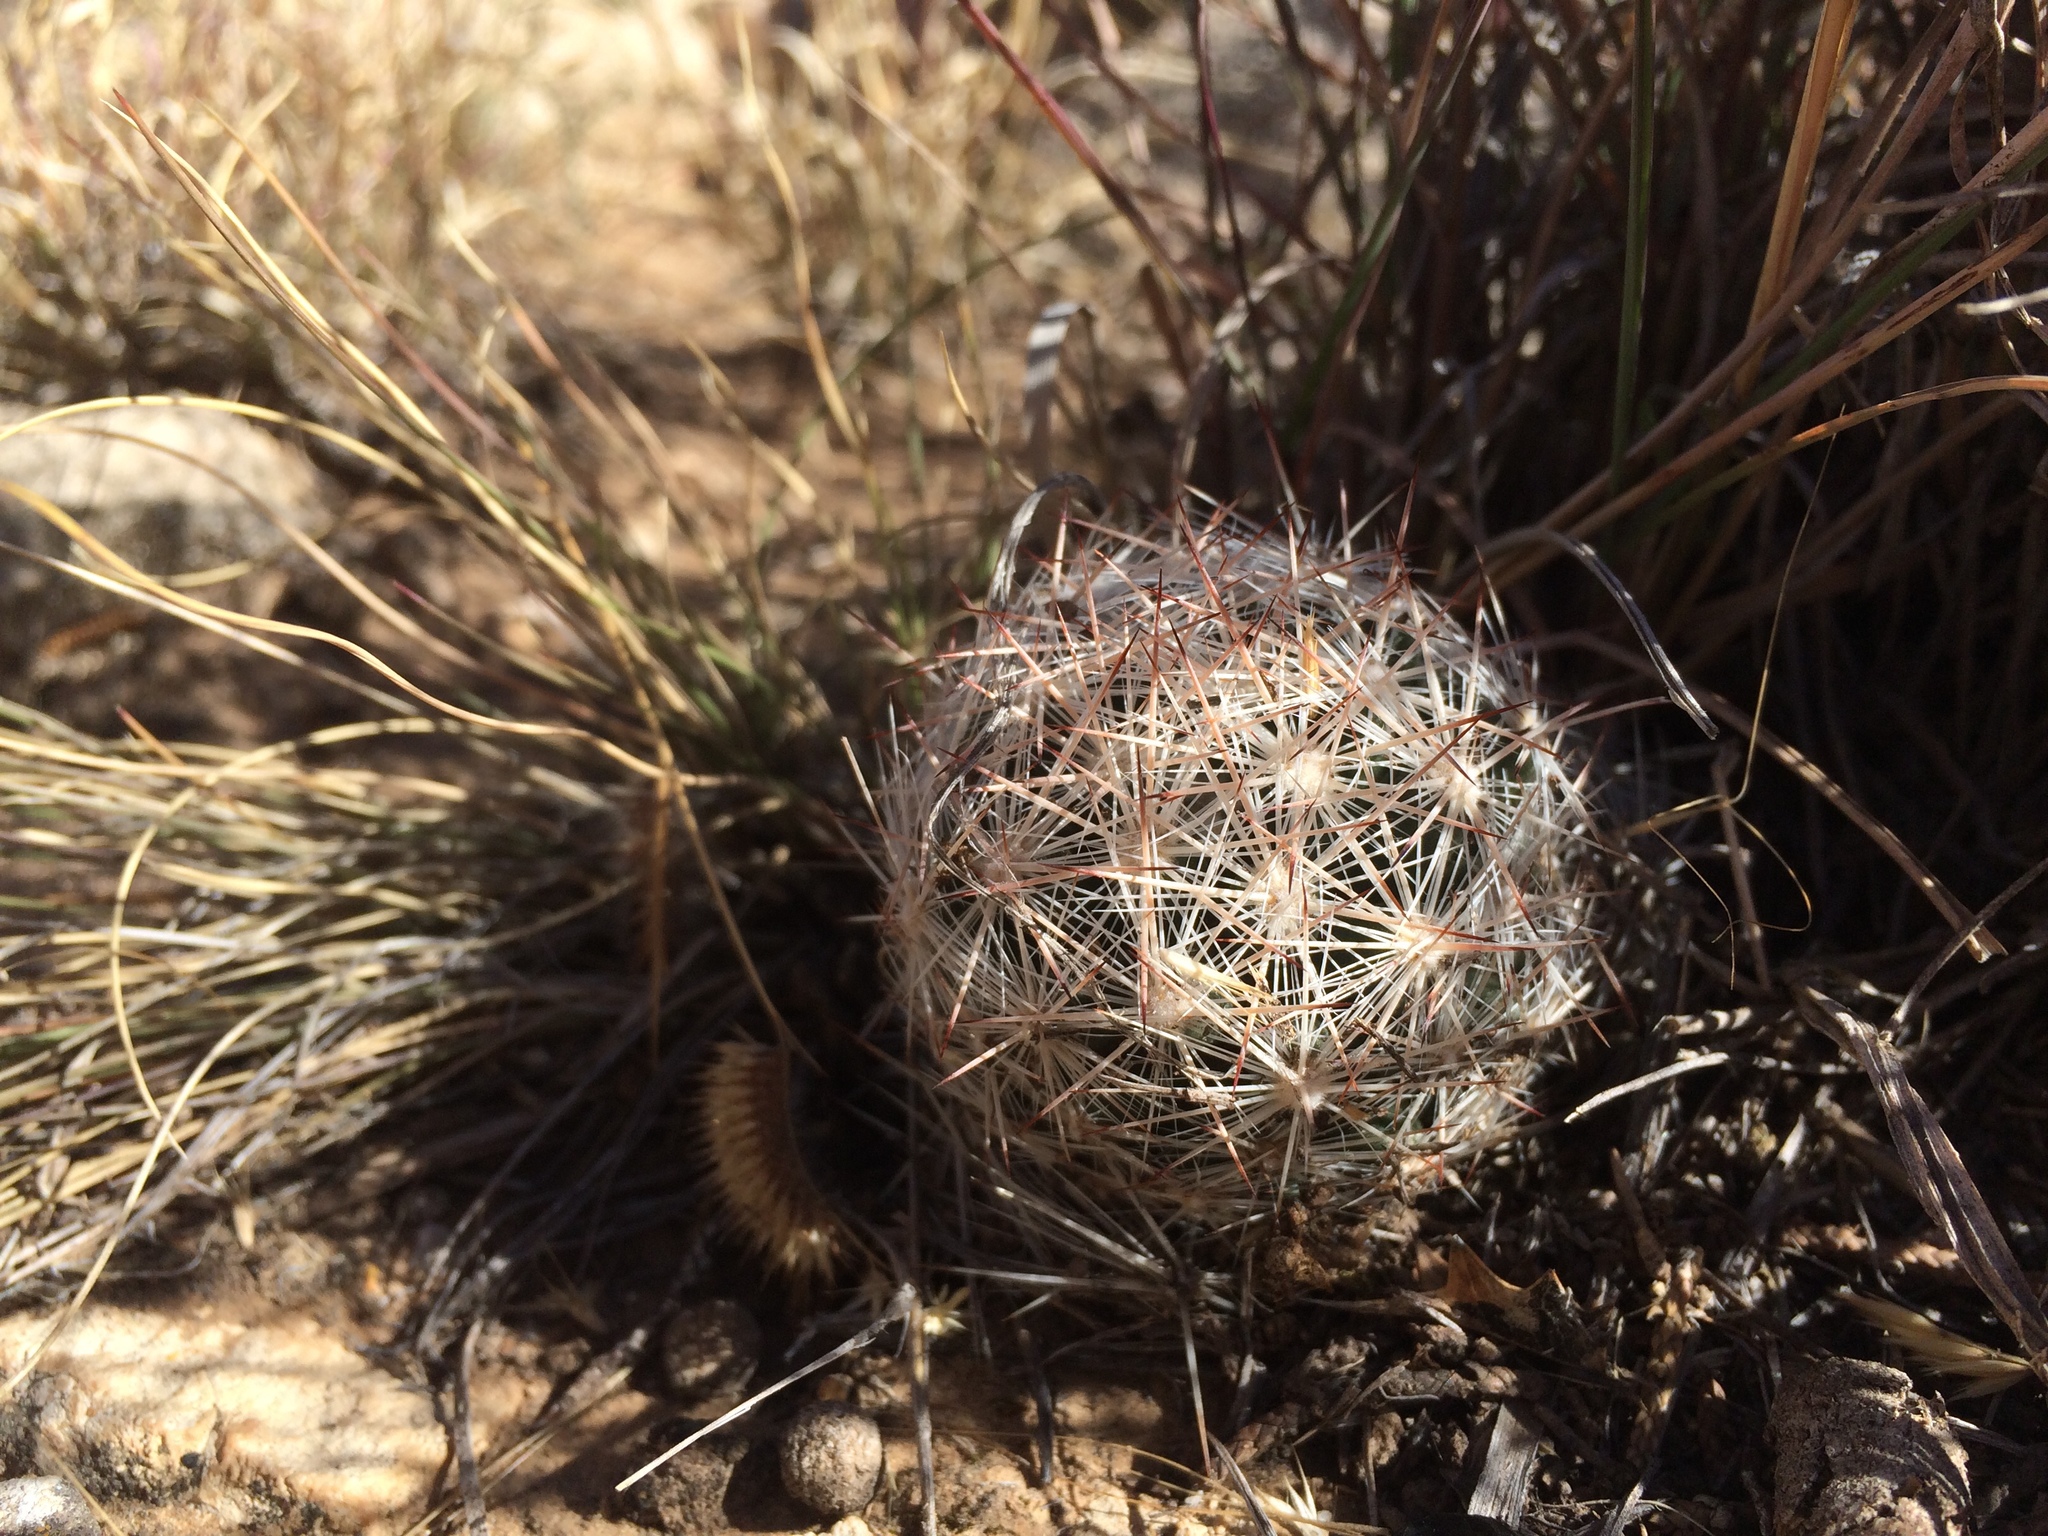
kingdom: Plantae
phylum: Tracheophyta
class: Magnoliopsida
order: Caryophyllales
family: Cactaceae
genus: Pelecyphora
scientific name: Pelecyphora vivipara
